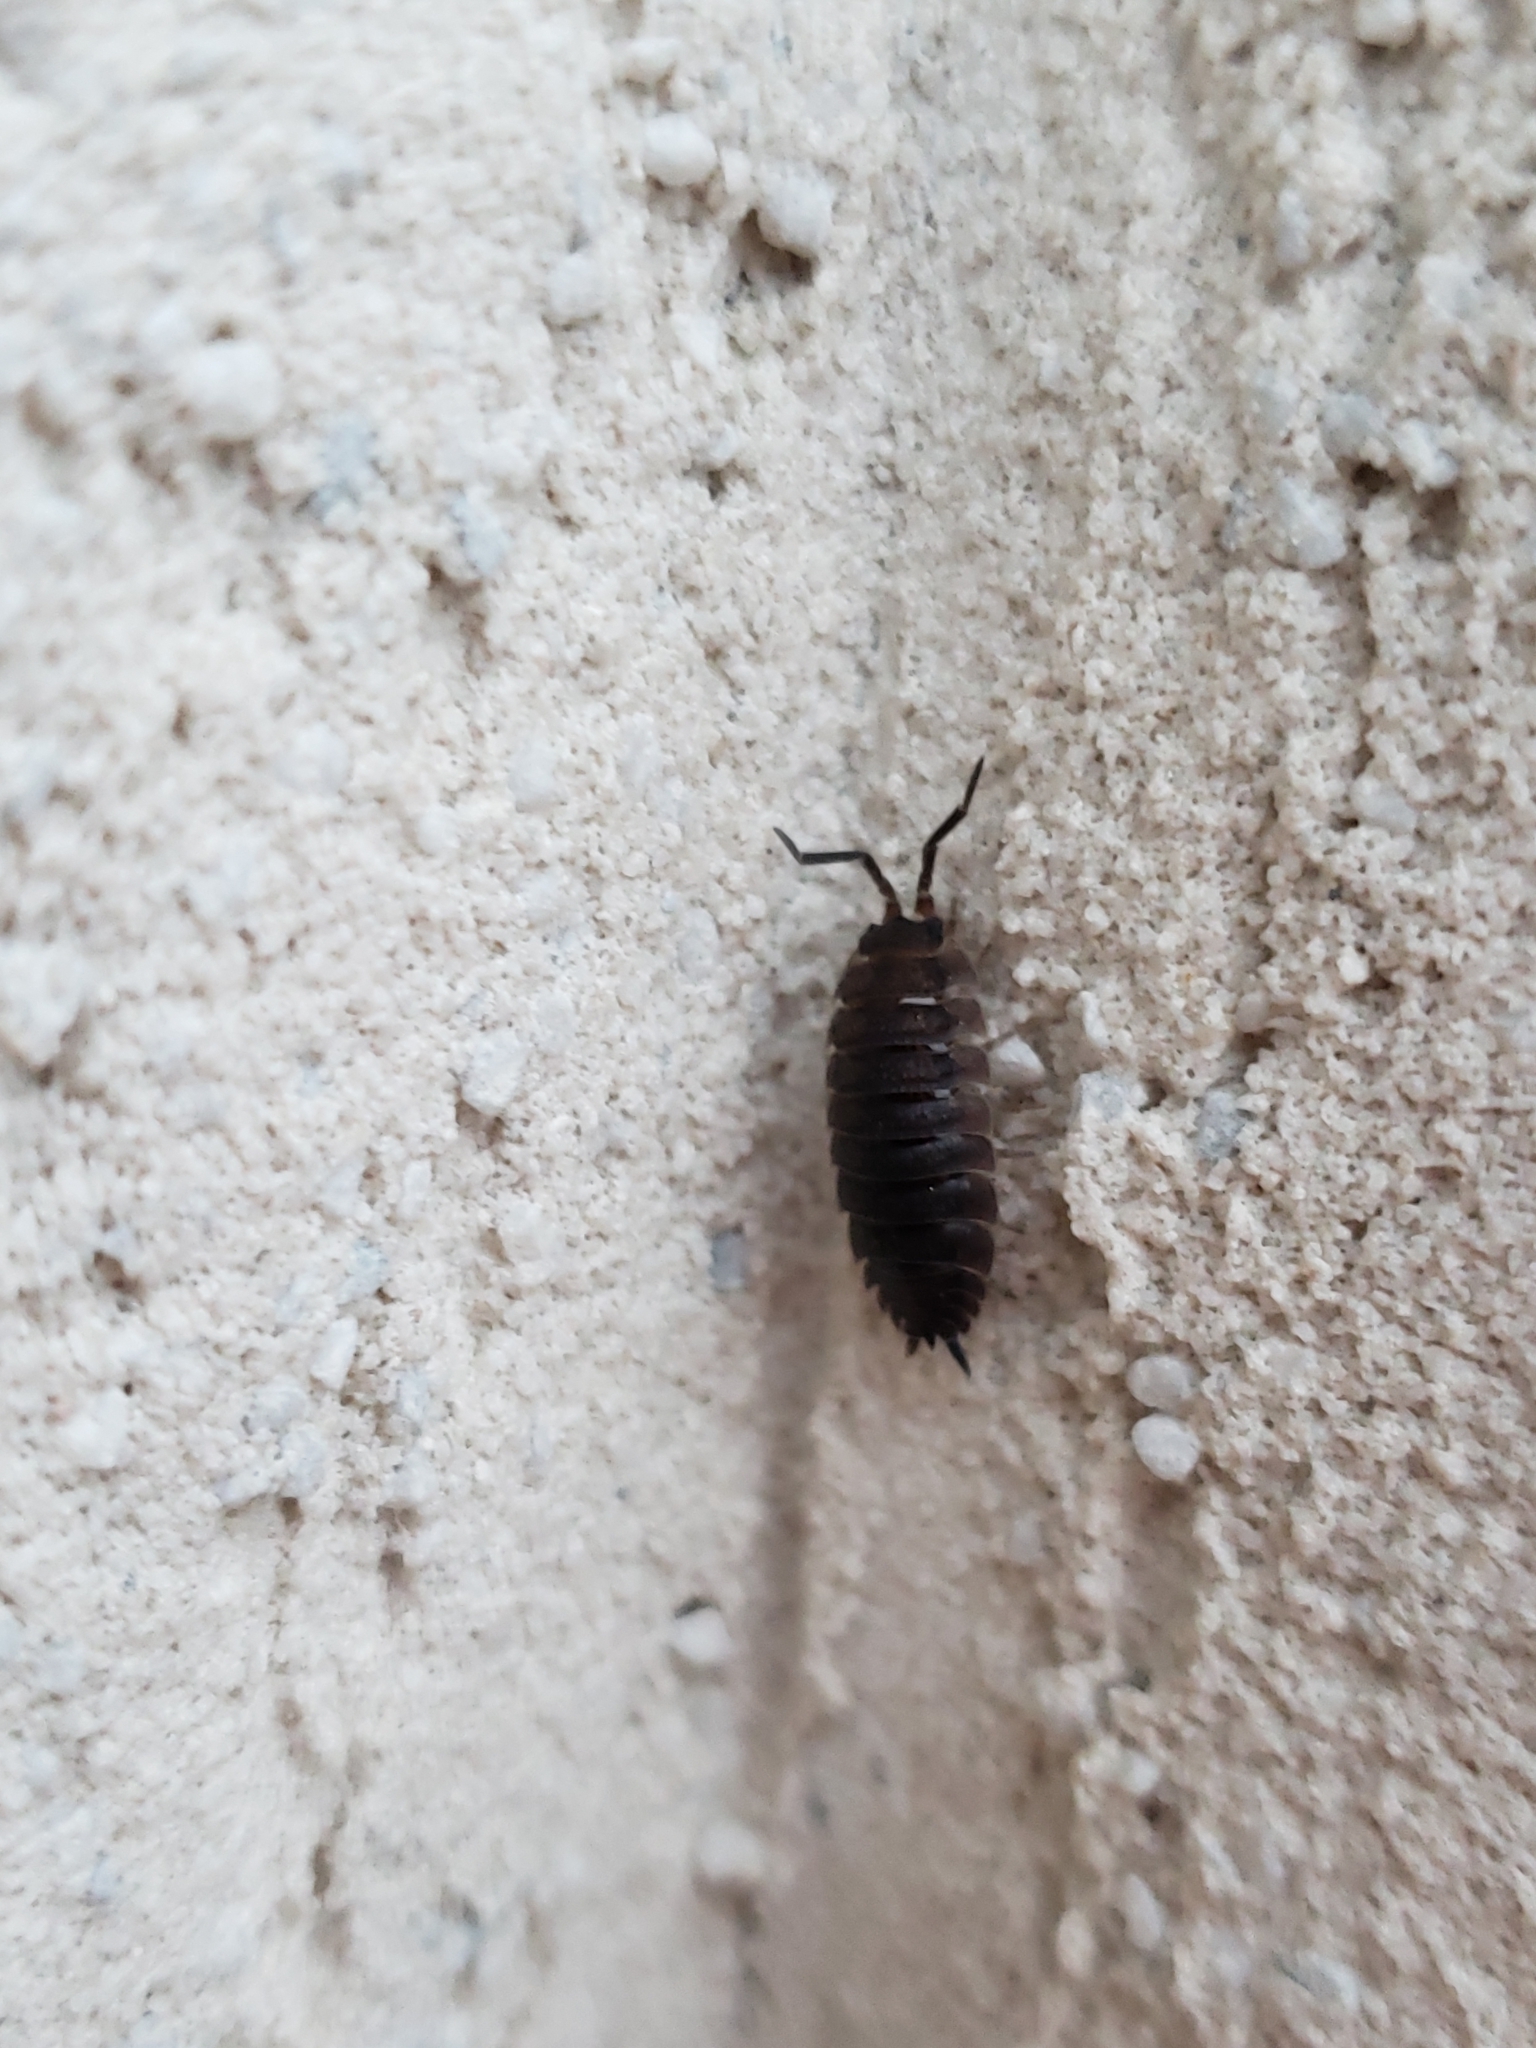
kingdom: Animalia
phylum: Arthropoda
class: Malacostraca
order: Isopoda
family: Porcellionidae
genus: Porcellio
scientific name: Porcellio scaber
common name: Common rough woodlouse
